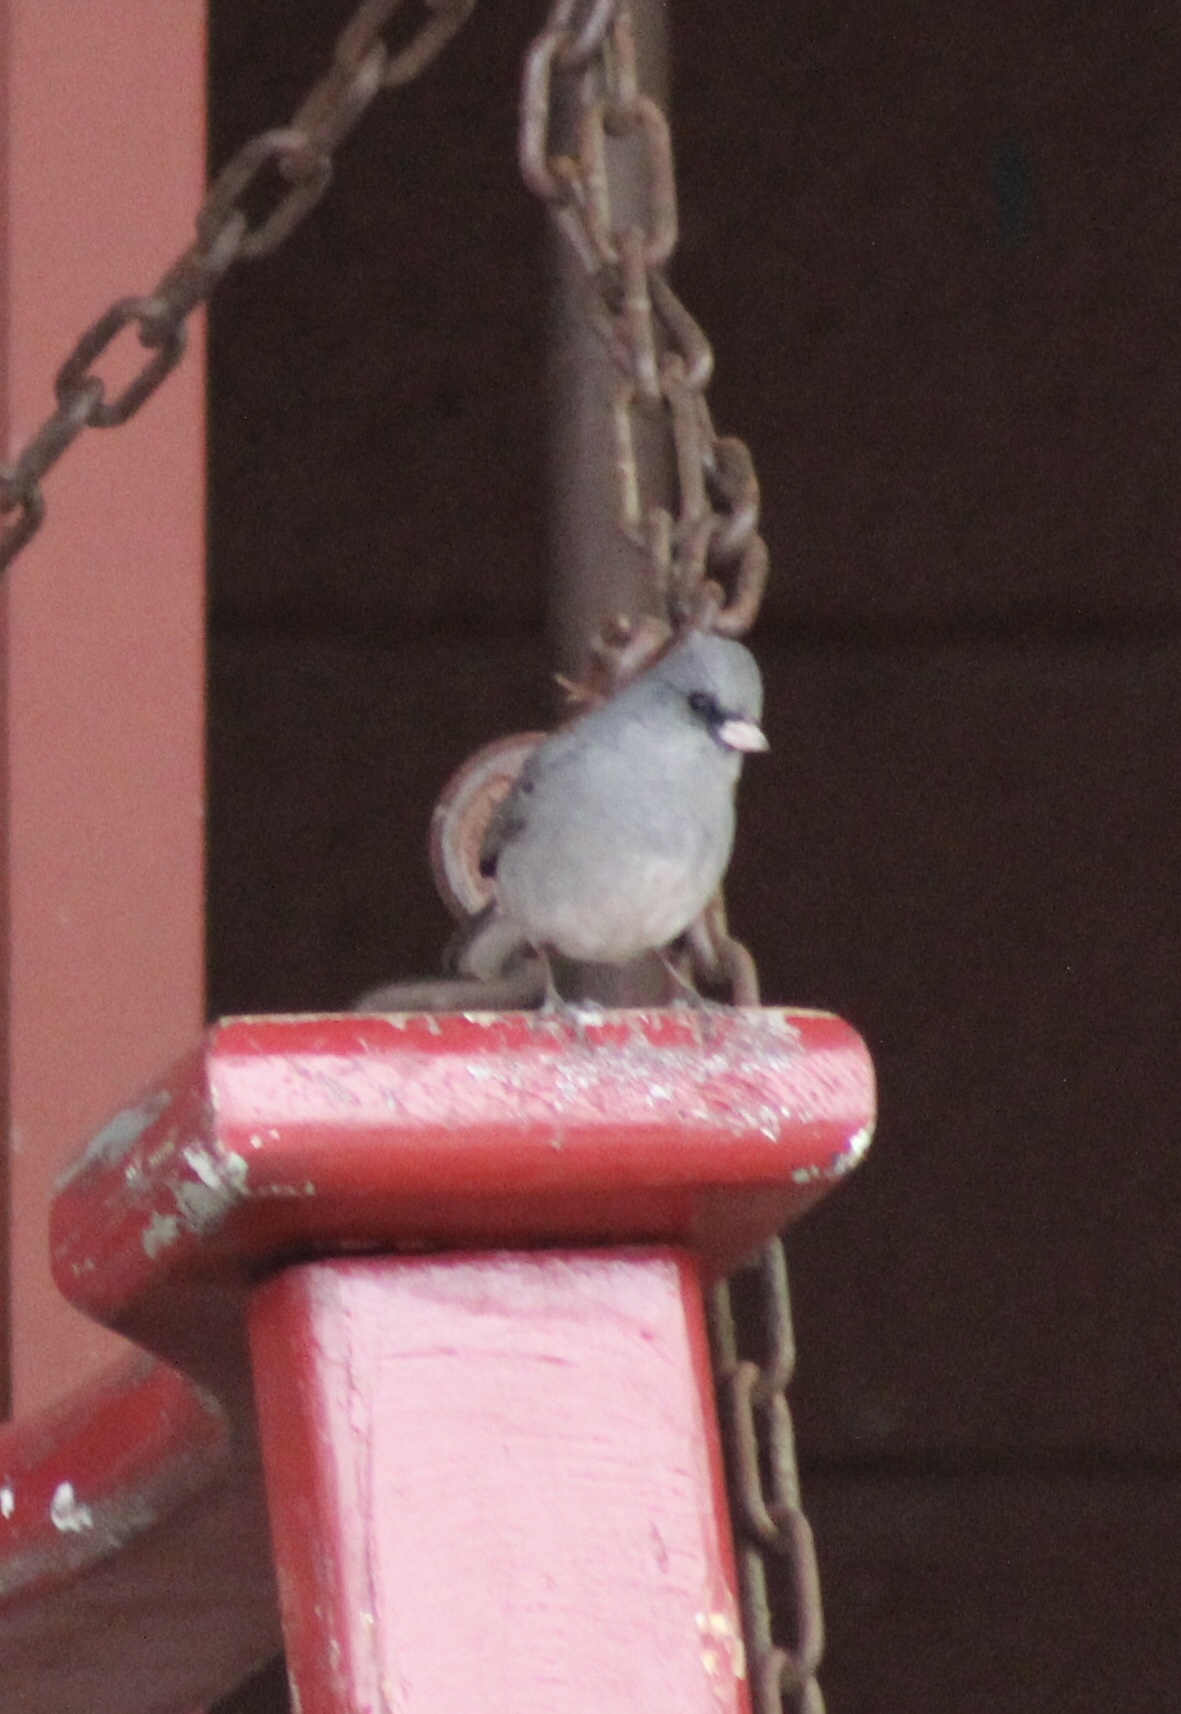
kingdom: Animalia
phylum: Chordata
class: Aves
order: Passeriformes
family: Passerellidae
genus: Junco
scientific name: Junco hyemalis
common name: Dark-eyed junco
